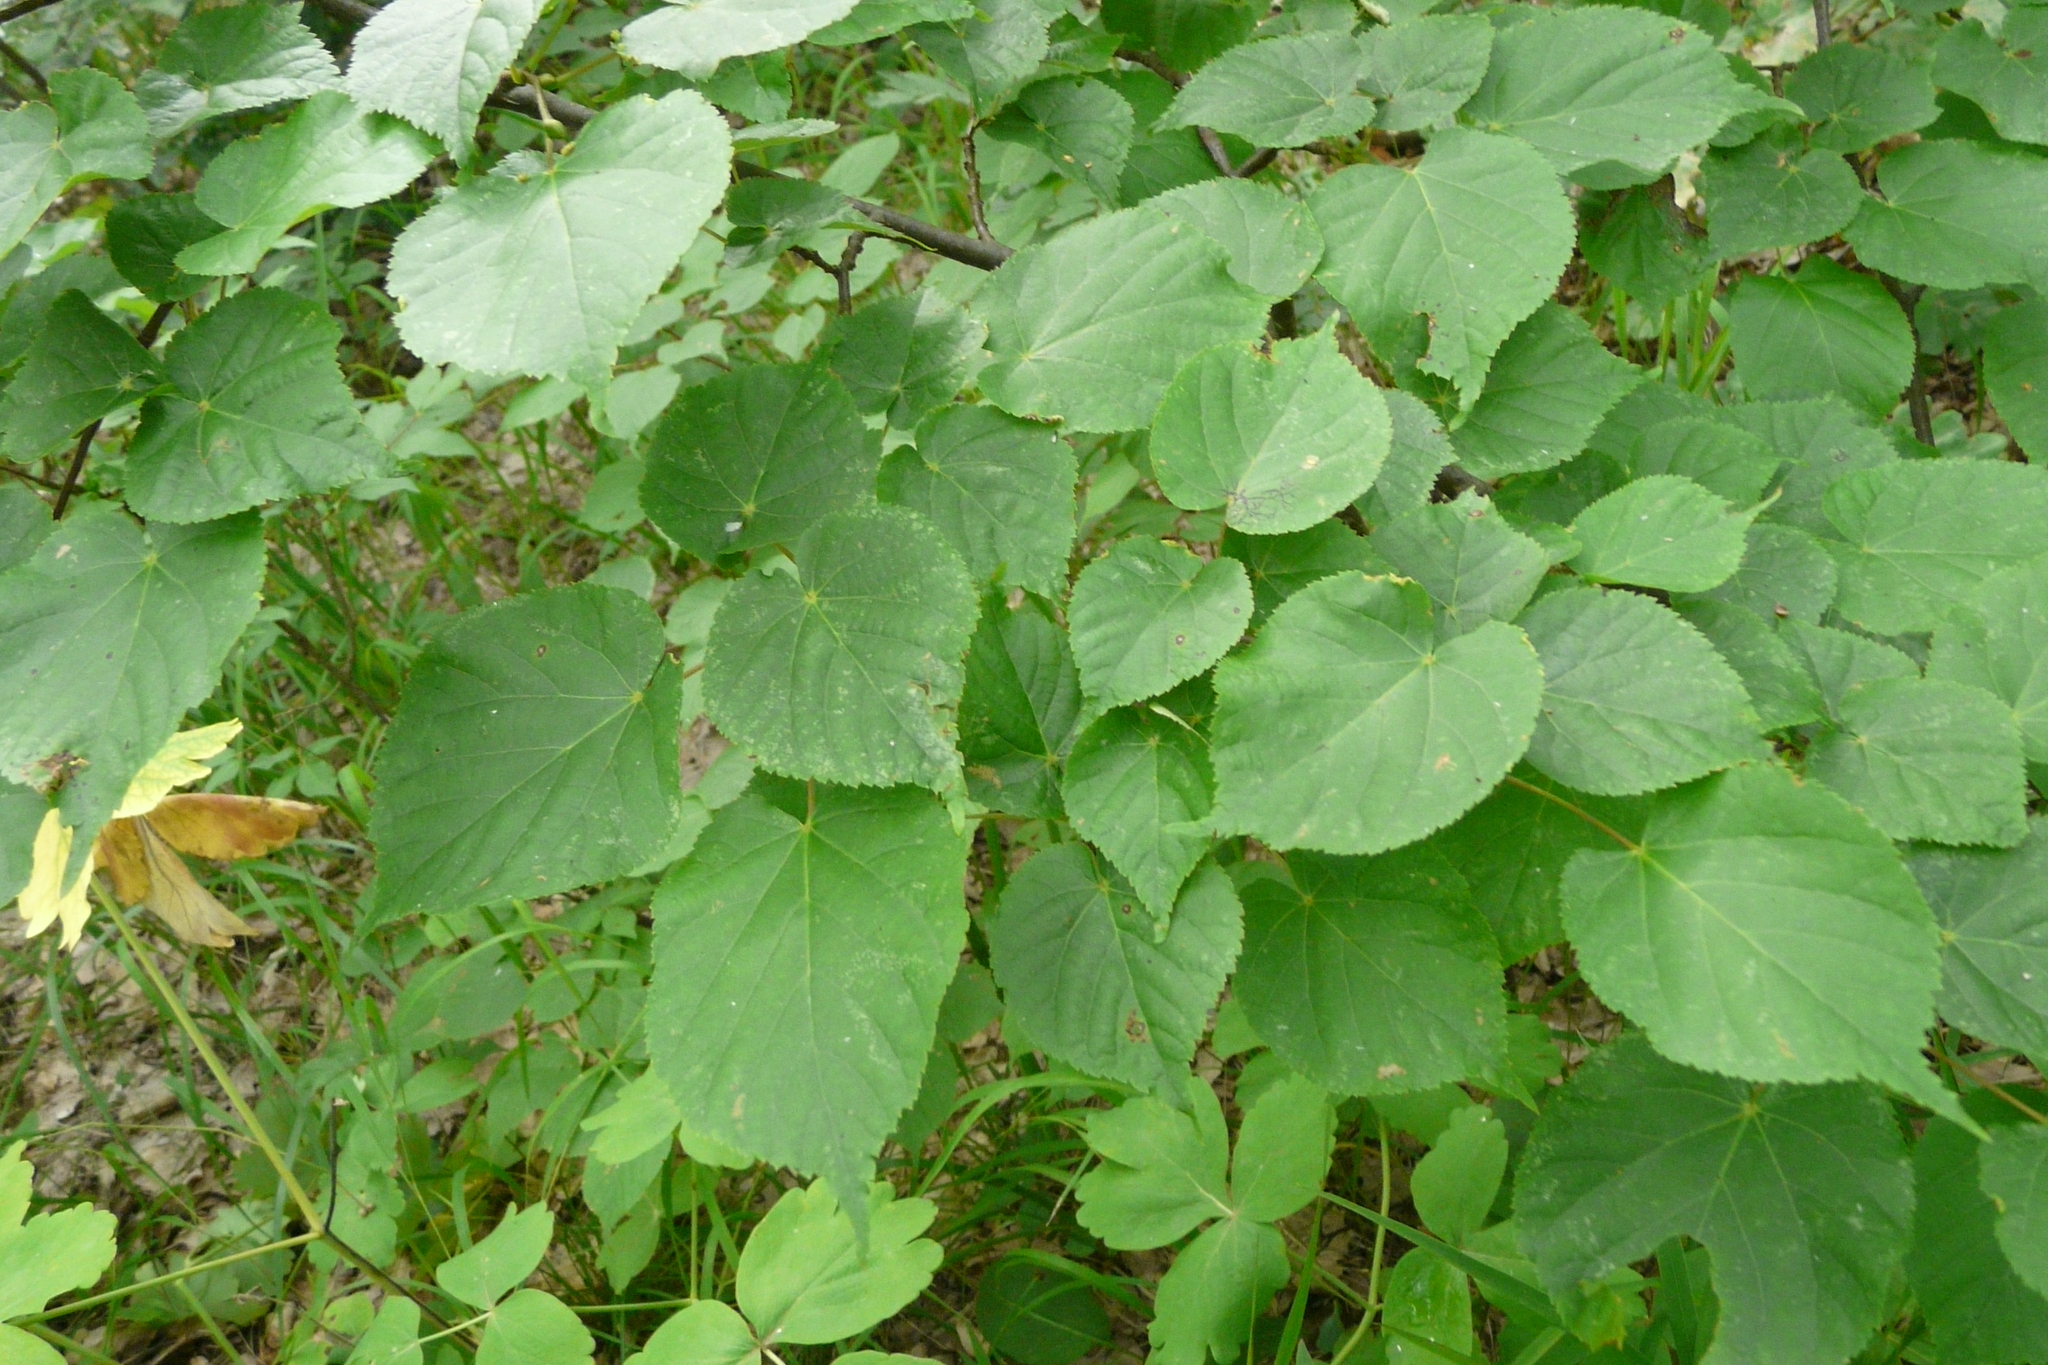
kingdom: Plantae
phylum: Tracheophyta
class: Magnoliopsida
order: Malvales
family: Malvaceae
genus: Tilia
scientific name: Tilia cordata
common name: Small-leaved lime
